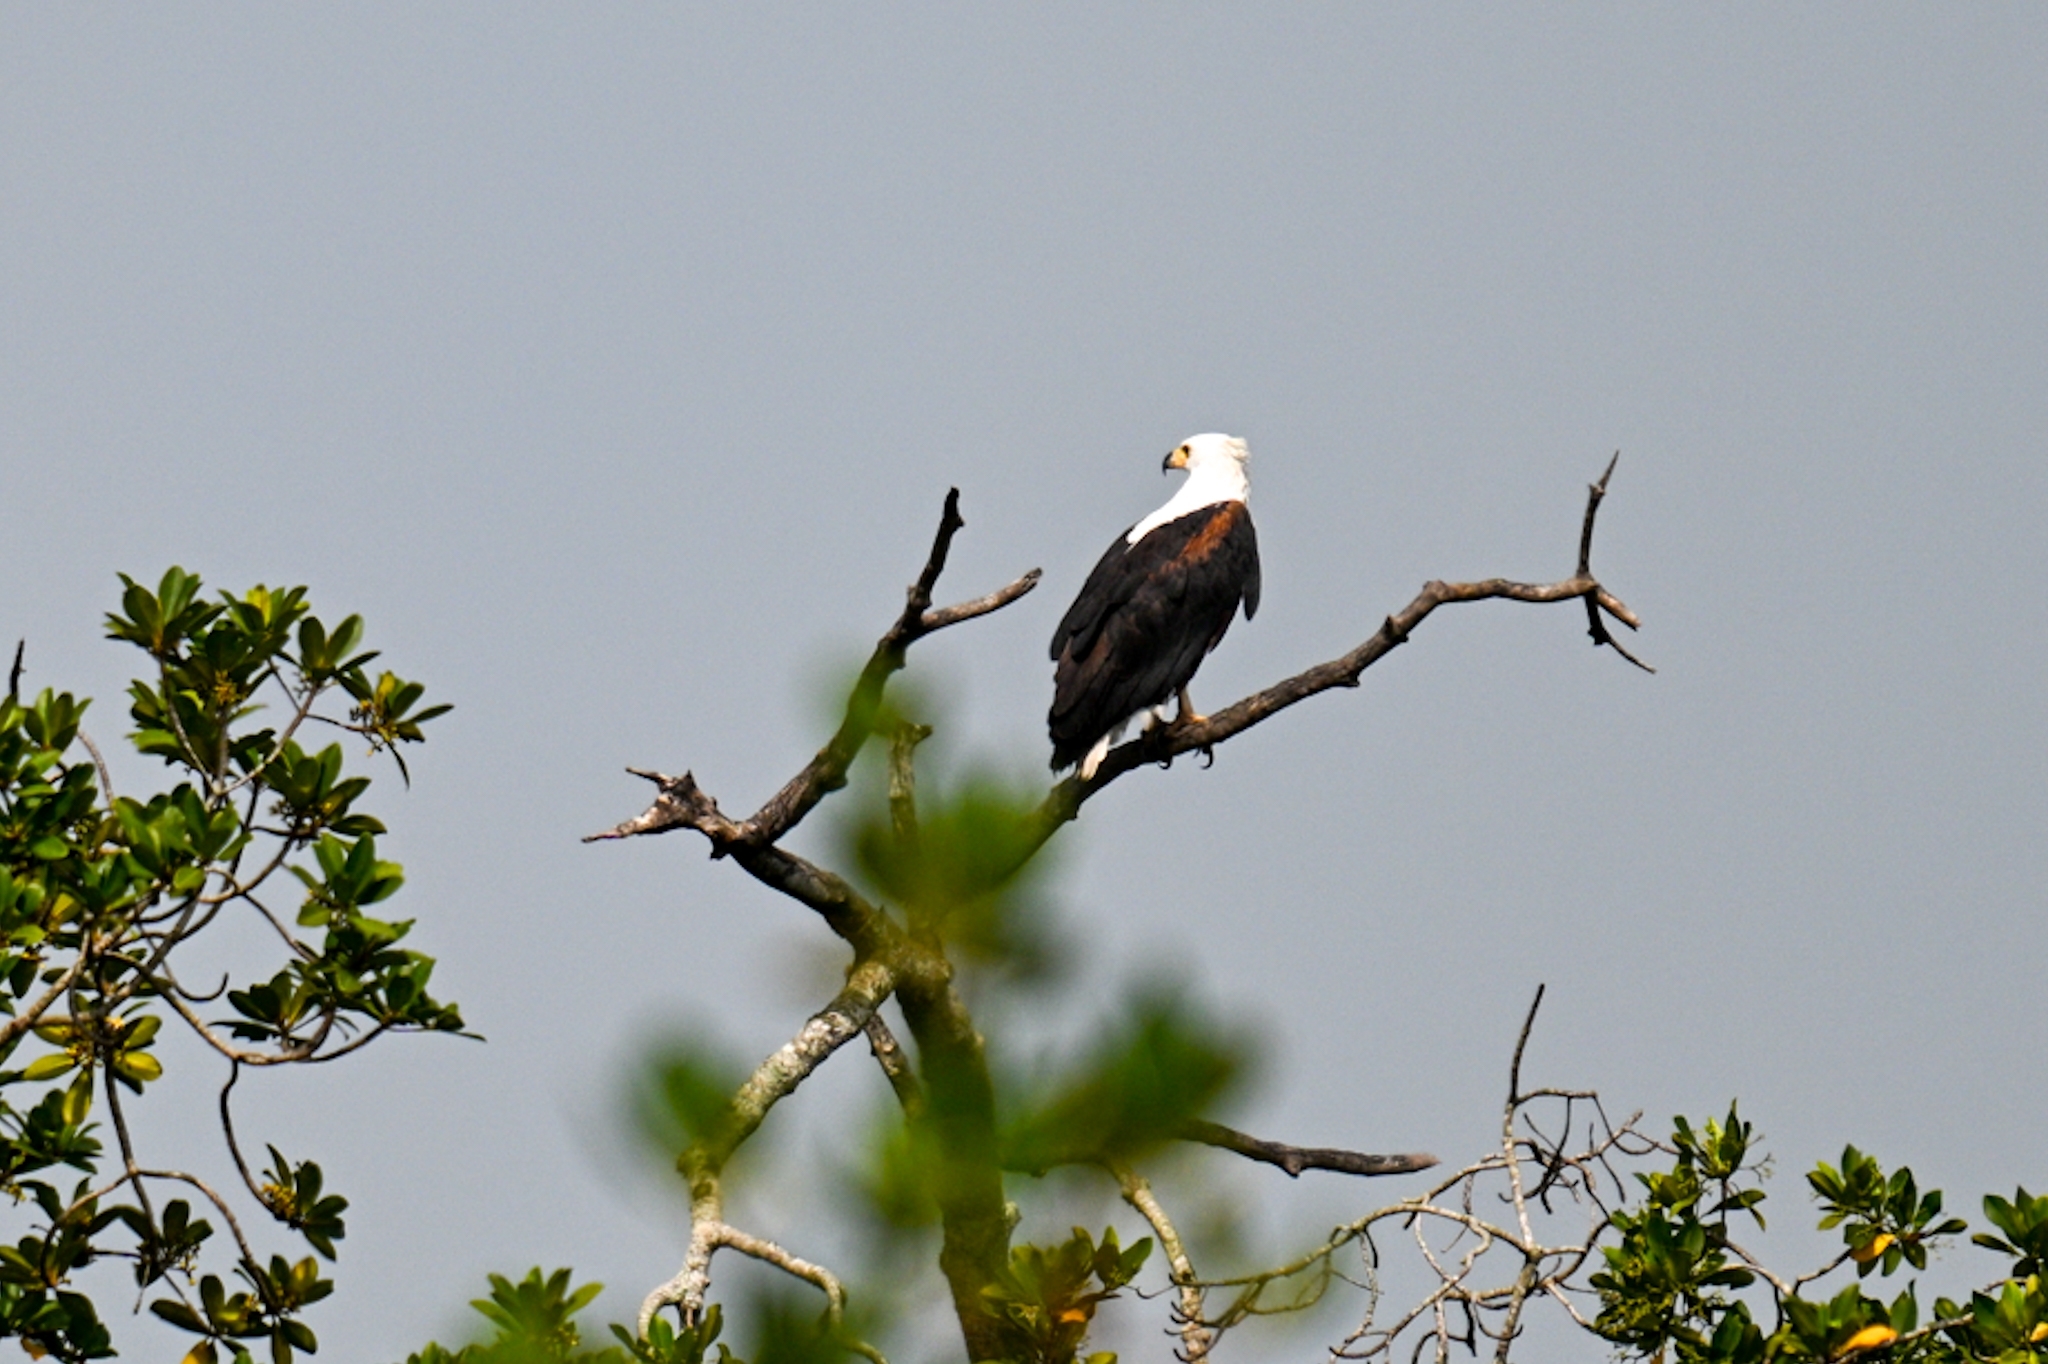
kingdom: Animalia
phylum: Chordata
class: Aves
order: Accipitriformes
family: Accipitridae
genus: Haliaeetus
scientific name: Haliaeetus vocifer
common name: African fish eagle
